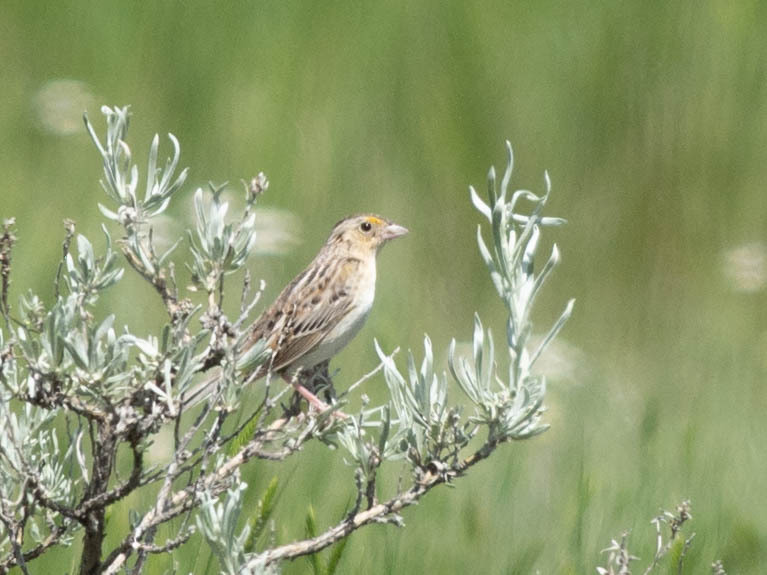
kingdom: Animalia
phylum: Chordata
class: Aves
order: Passeriformes
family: Passerellidae
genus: Ammodramus
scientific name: Ammodramus savannarum
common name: Grasshopper sparrow
